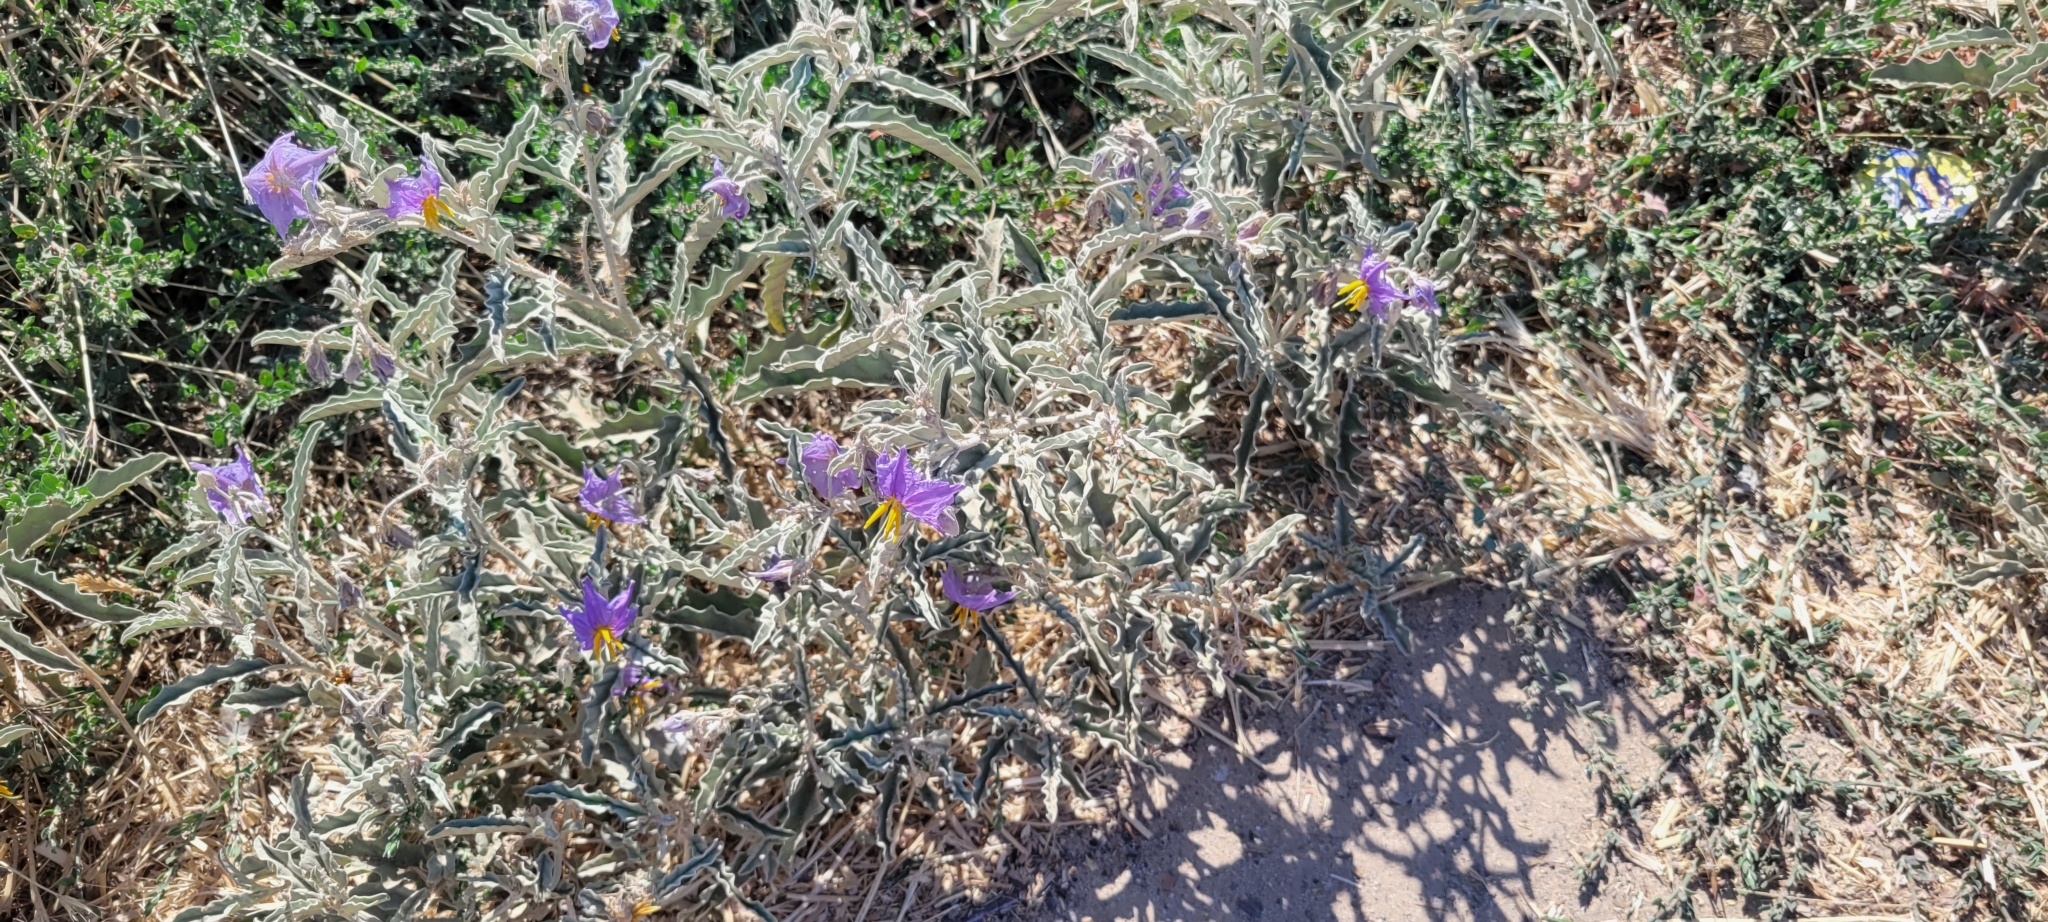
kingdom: Plantae
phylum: Tracheophyta
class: Magnoliopsida
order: Solanales
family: Solanaceae
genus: Solanum
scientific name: Solanum elaeagnifolium
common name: Silverleaf nightshade
